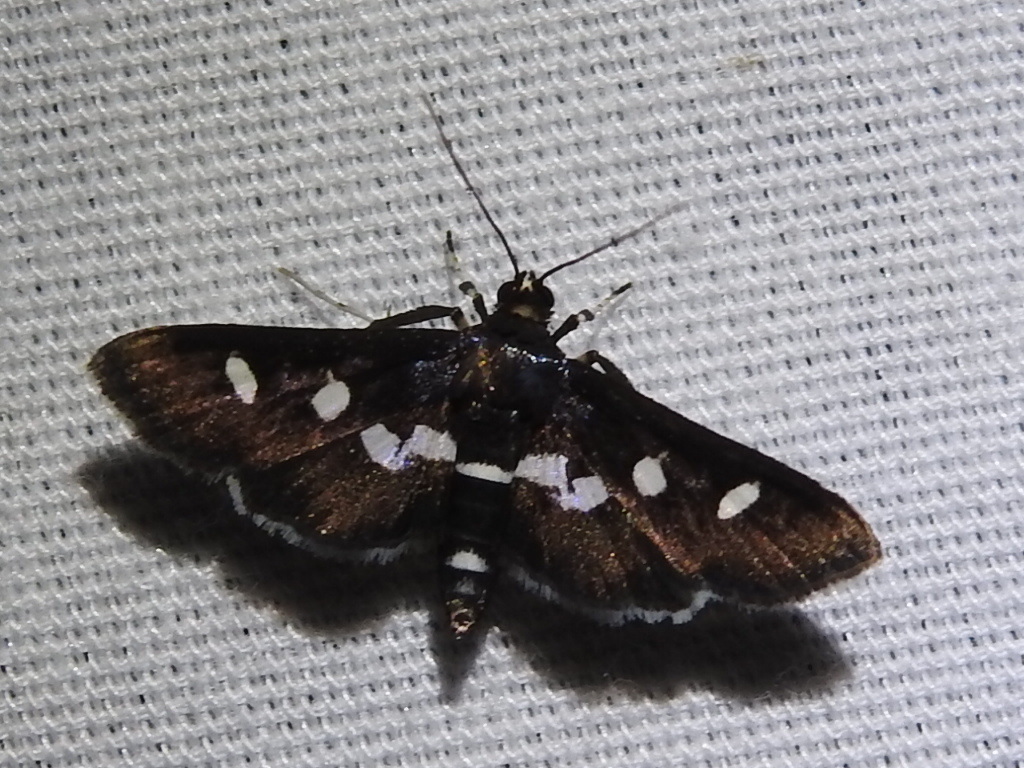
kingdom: Animalia
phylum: Arthropoda
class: Insecta
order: Lepidoptera
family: Crambidae
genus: Desmia
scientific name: Desmia
